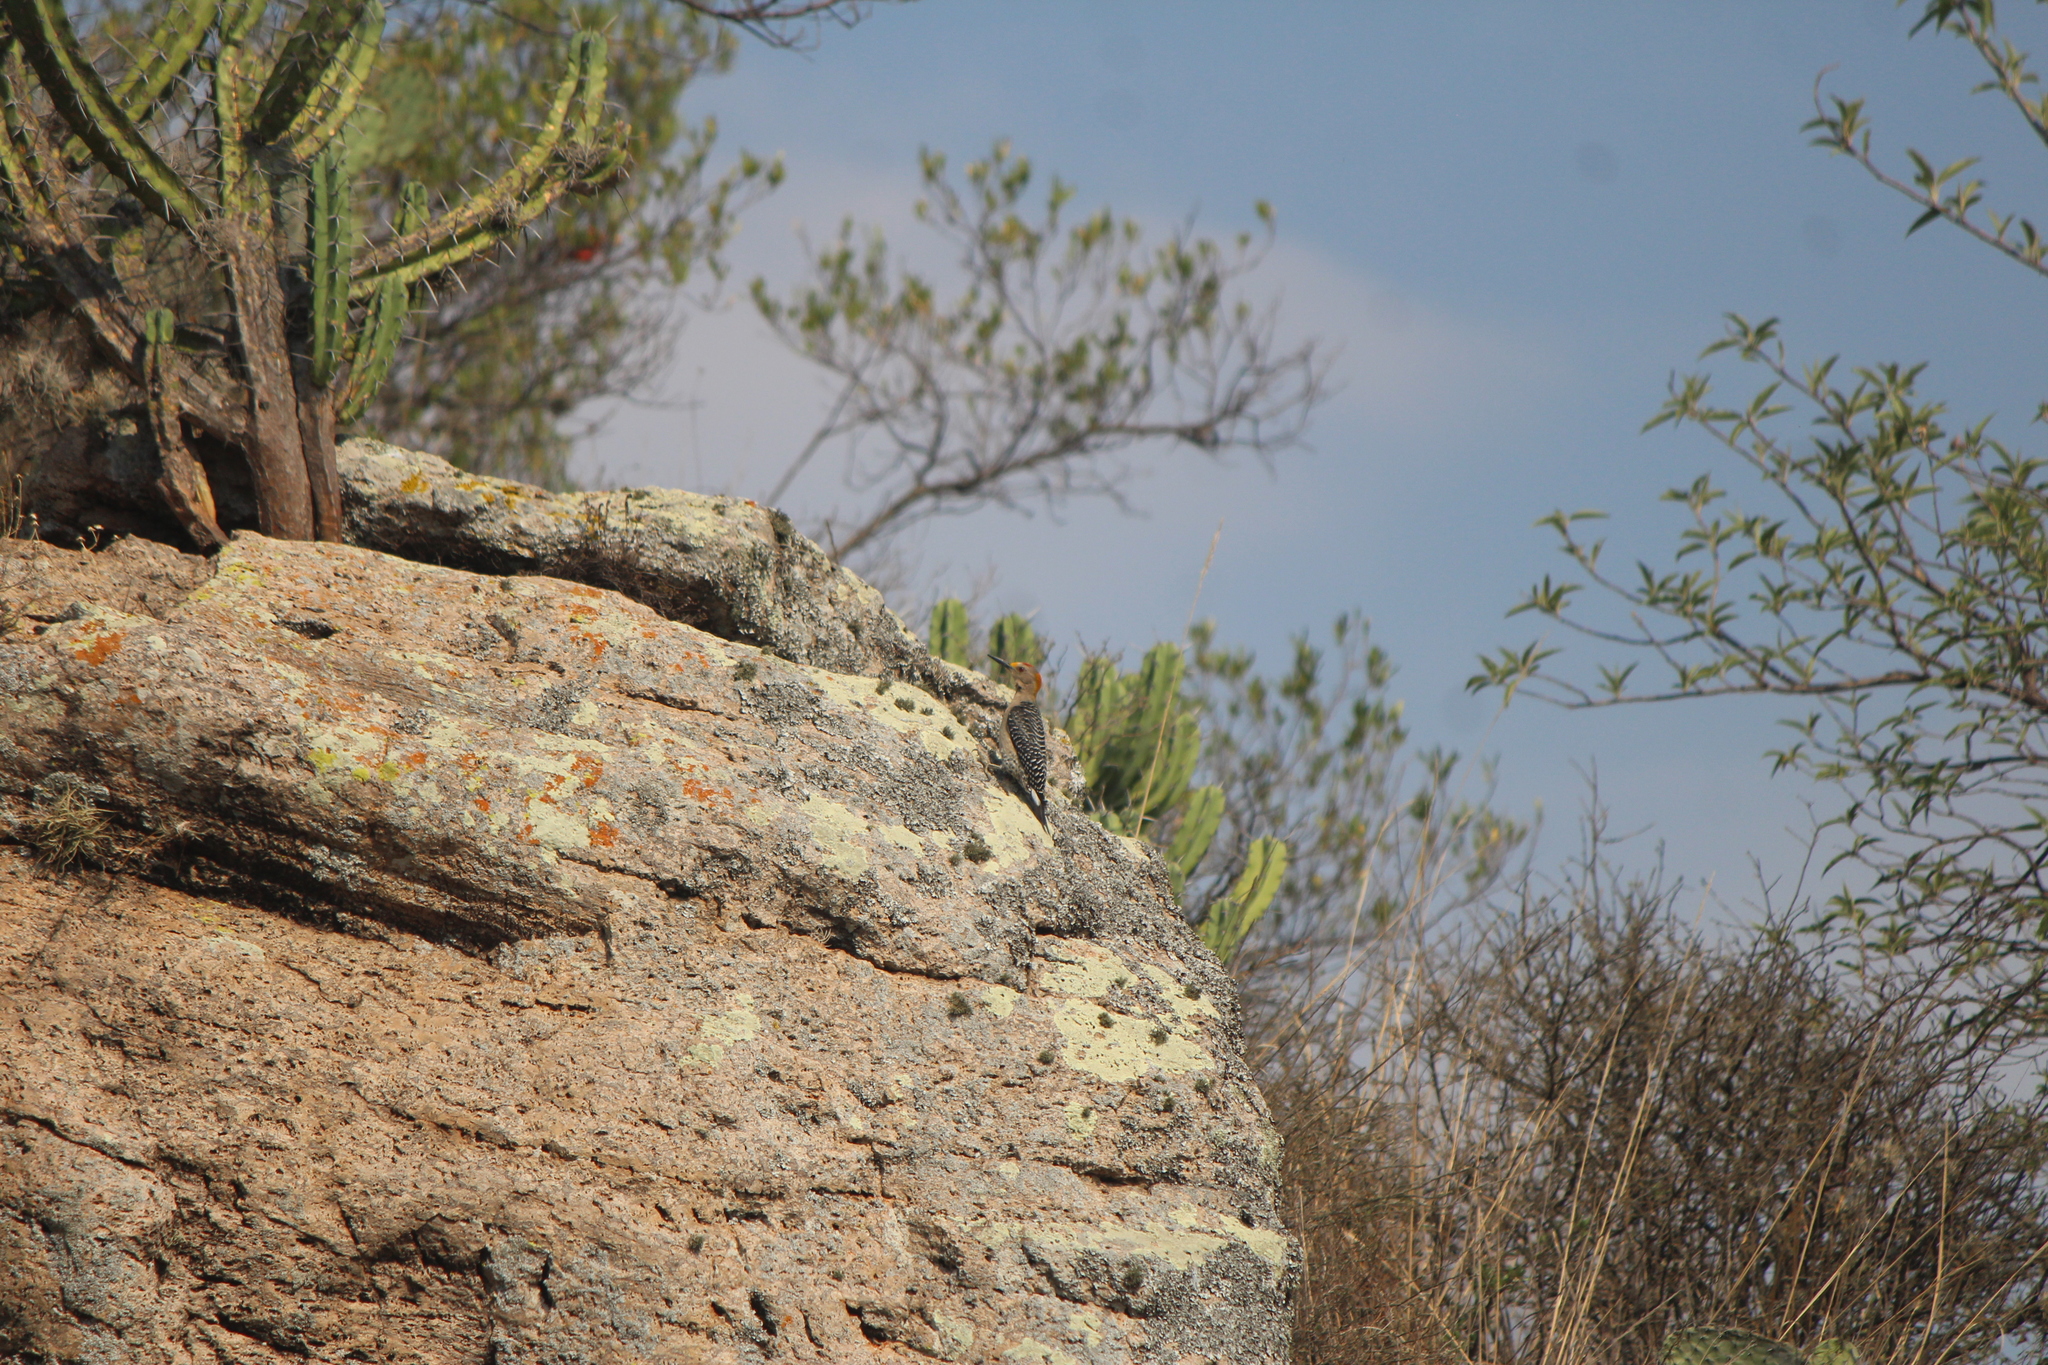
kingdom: Animalia
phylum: Chordata
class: Aves
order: Piciformes
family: Picidae
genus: Melanerpes
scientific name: Melanerpes aurifrons
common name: Golden-fronted woodpecker
